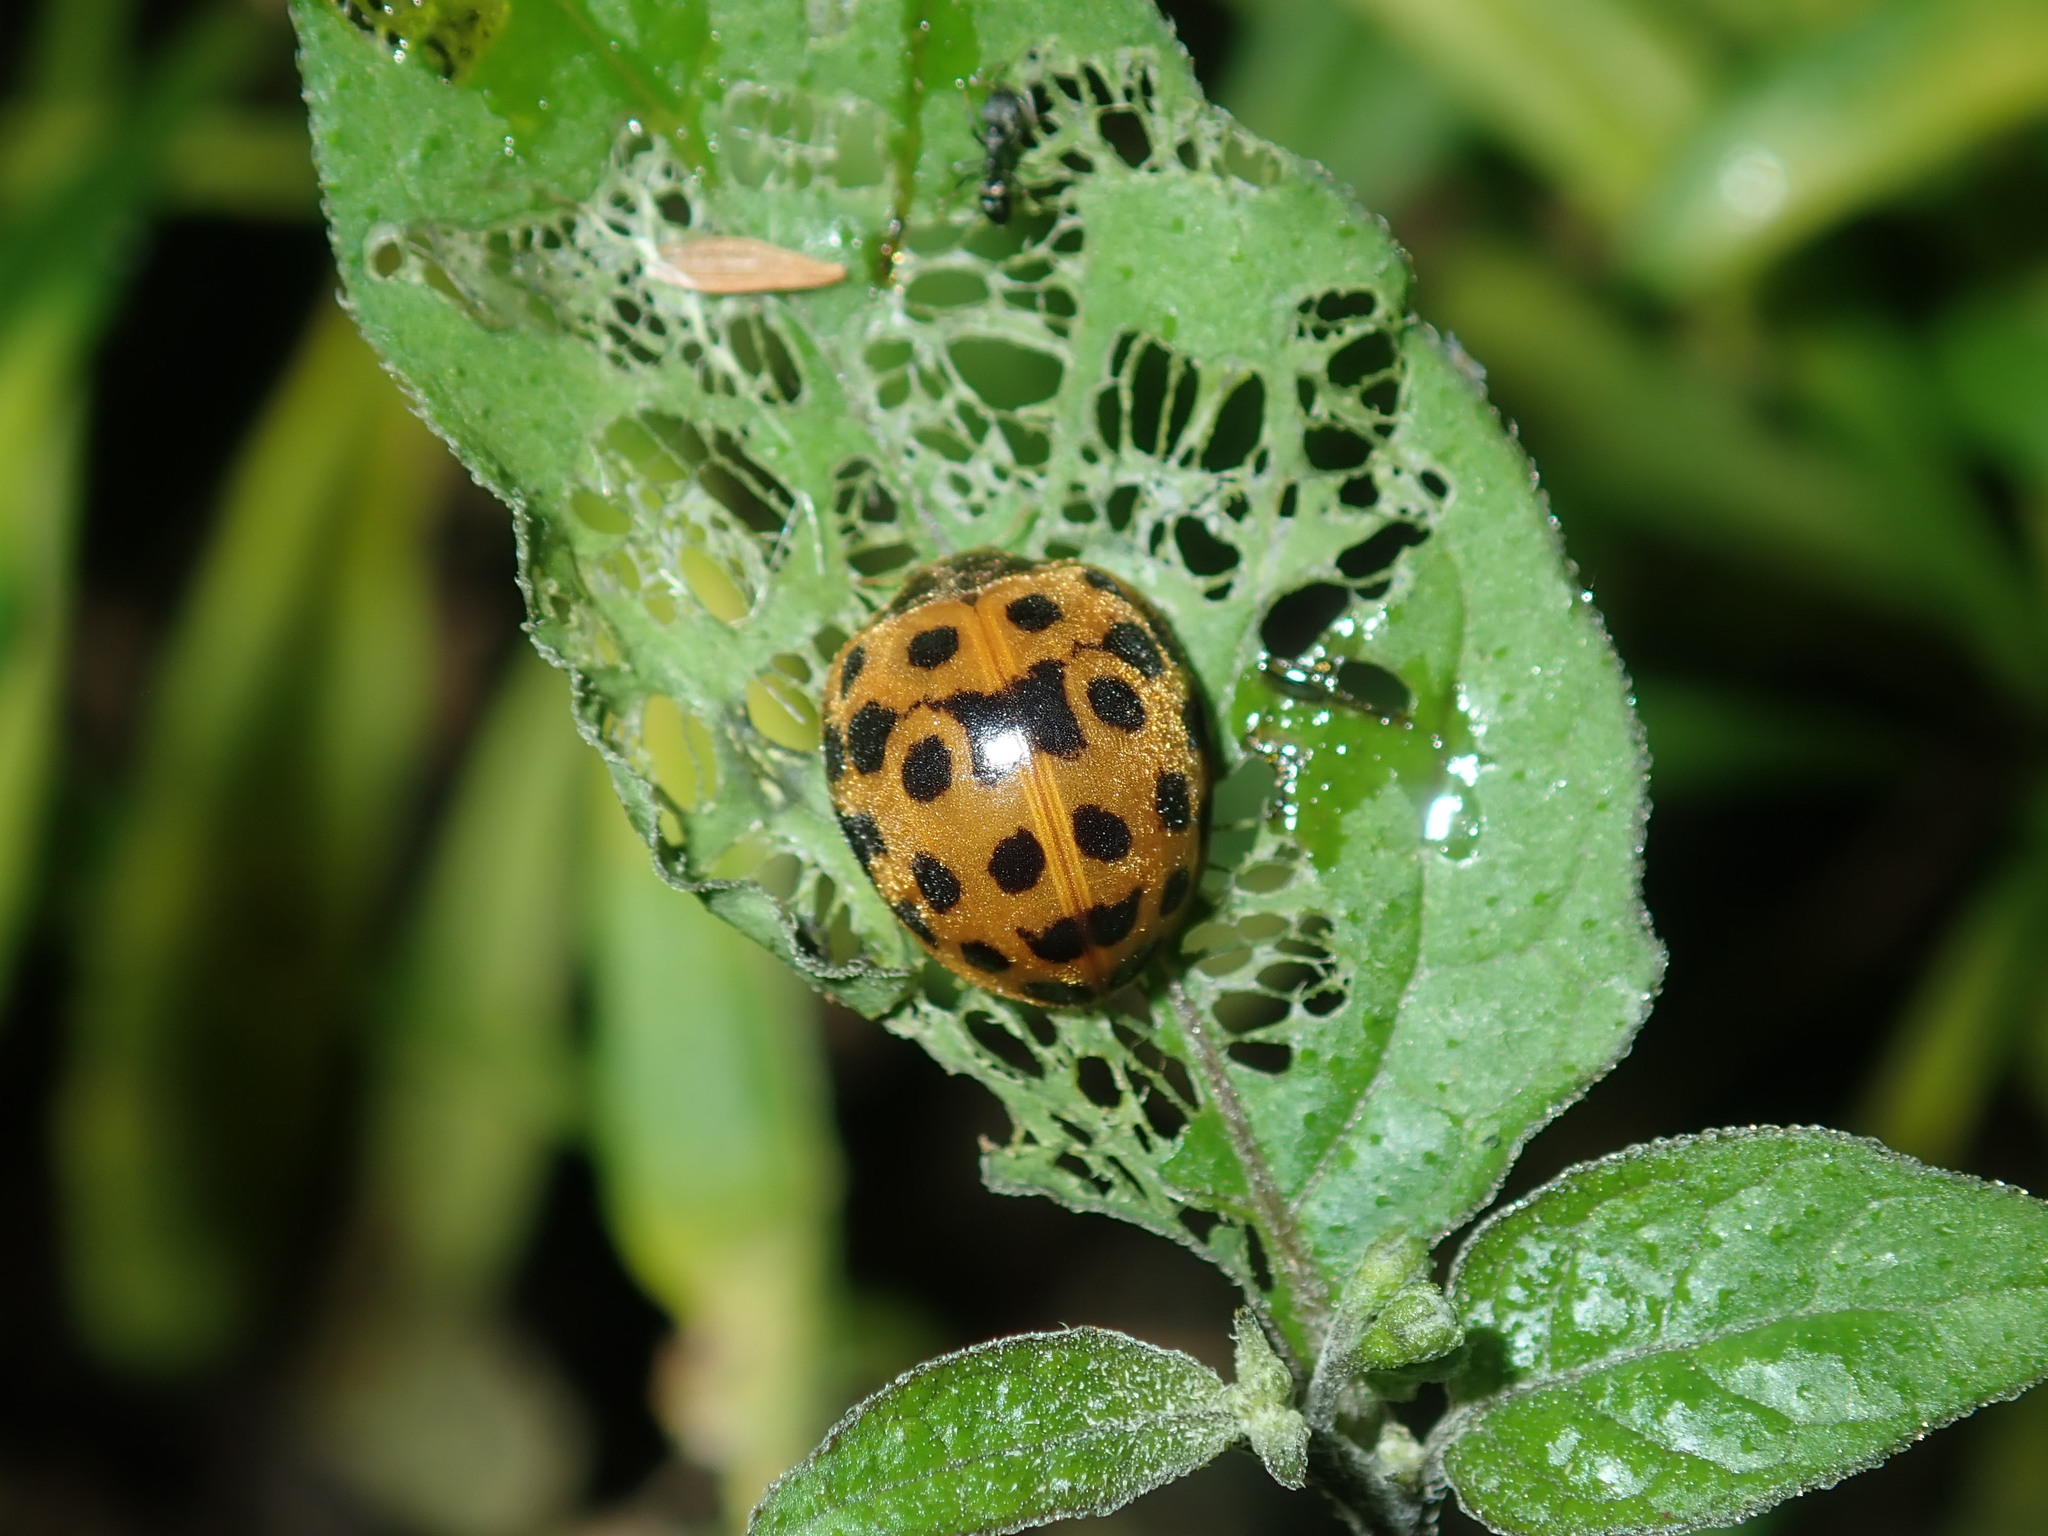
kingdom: Animalia
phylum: Arthropoda
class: Insecta
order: Coleoptera
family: Coccinellidae
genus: Henosepilachna
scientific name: Henosepilachna vigintioctopunctata
